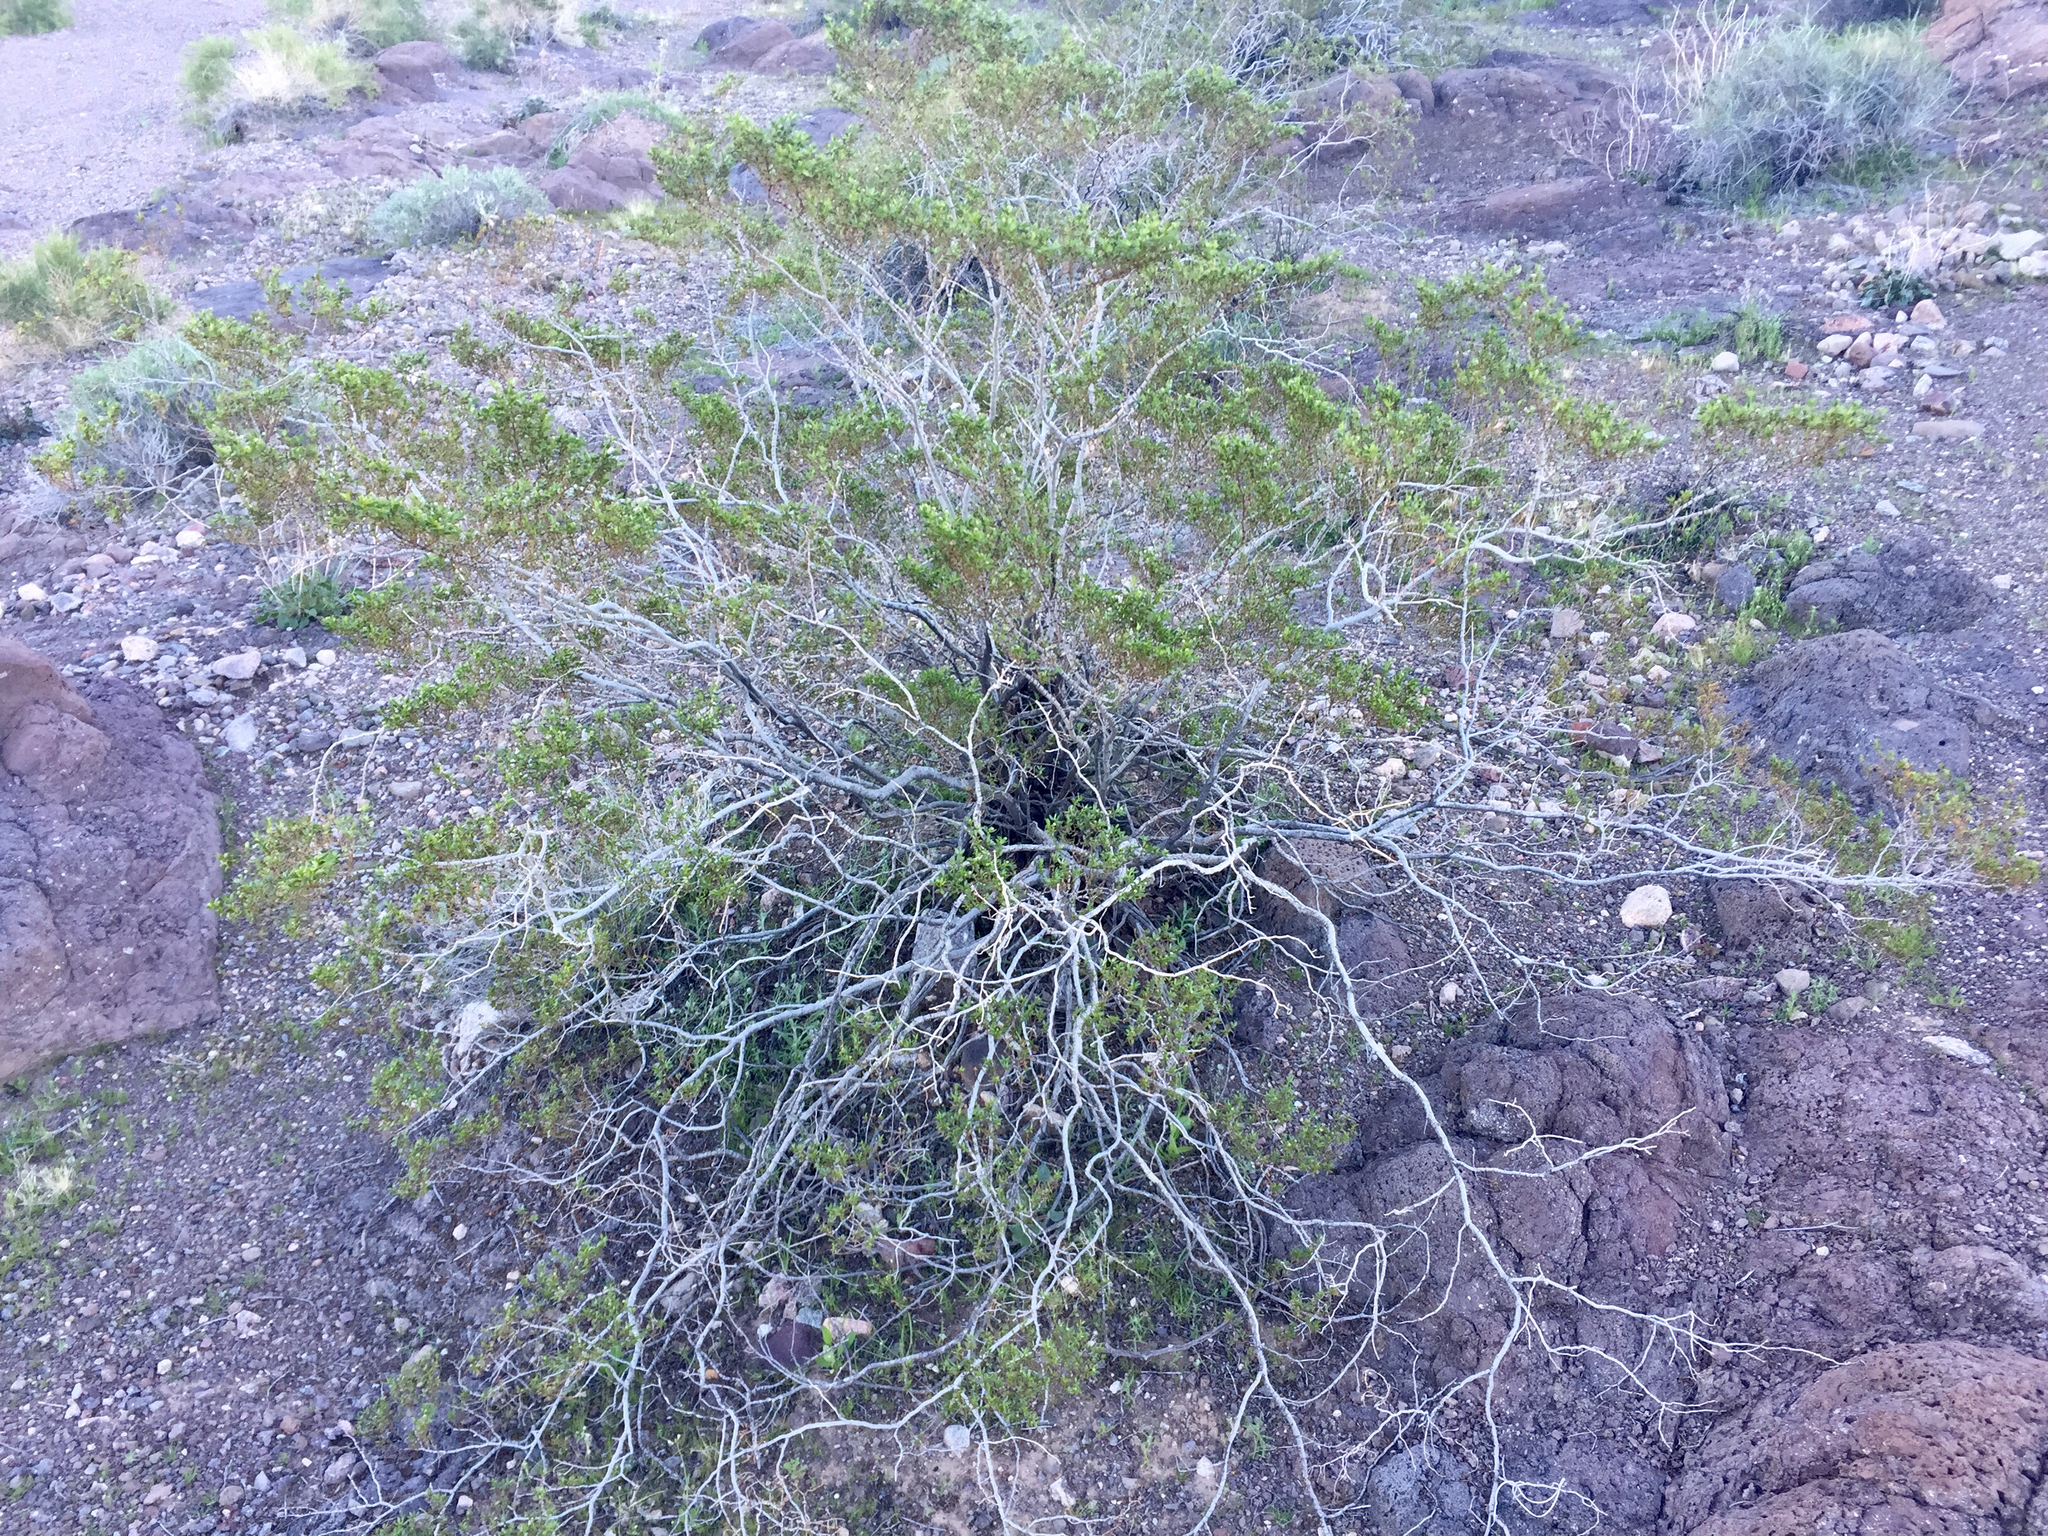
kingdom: Plantae
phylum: Tracheophyta
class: Magnoliopsida
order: Zygophyllales
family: Zygophyllaceae
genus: Larrea
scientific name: Larrea tridentata
